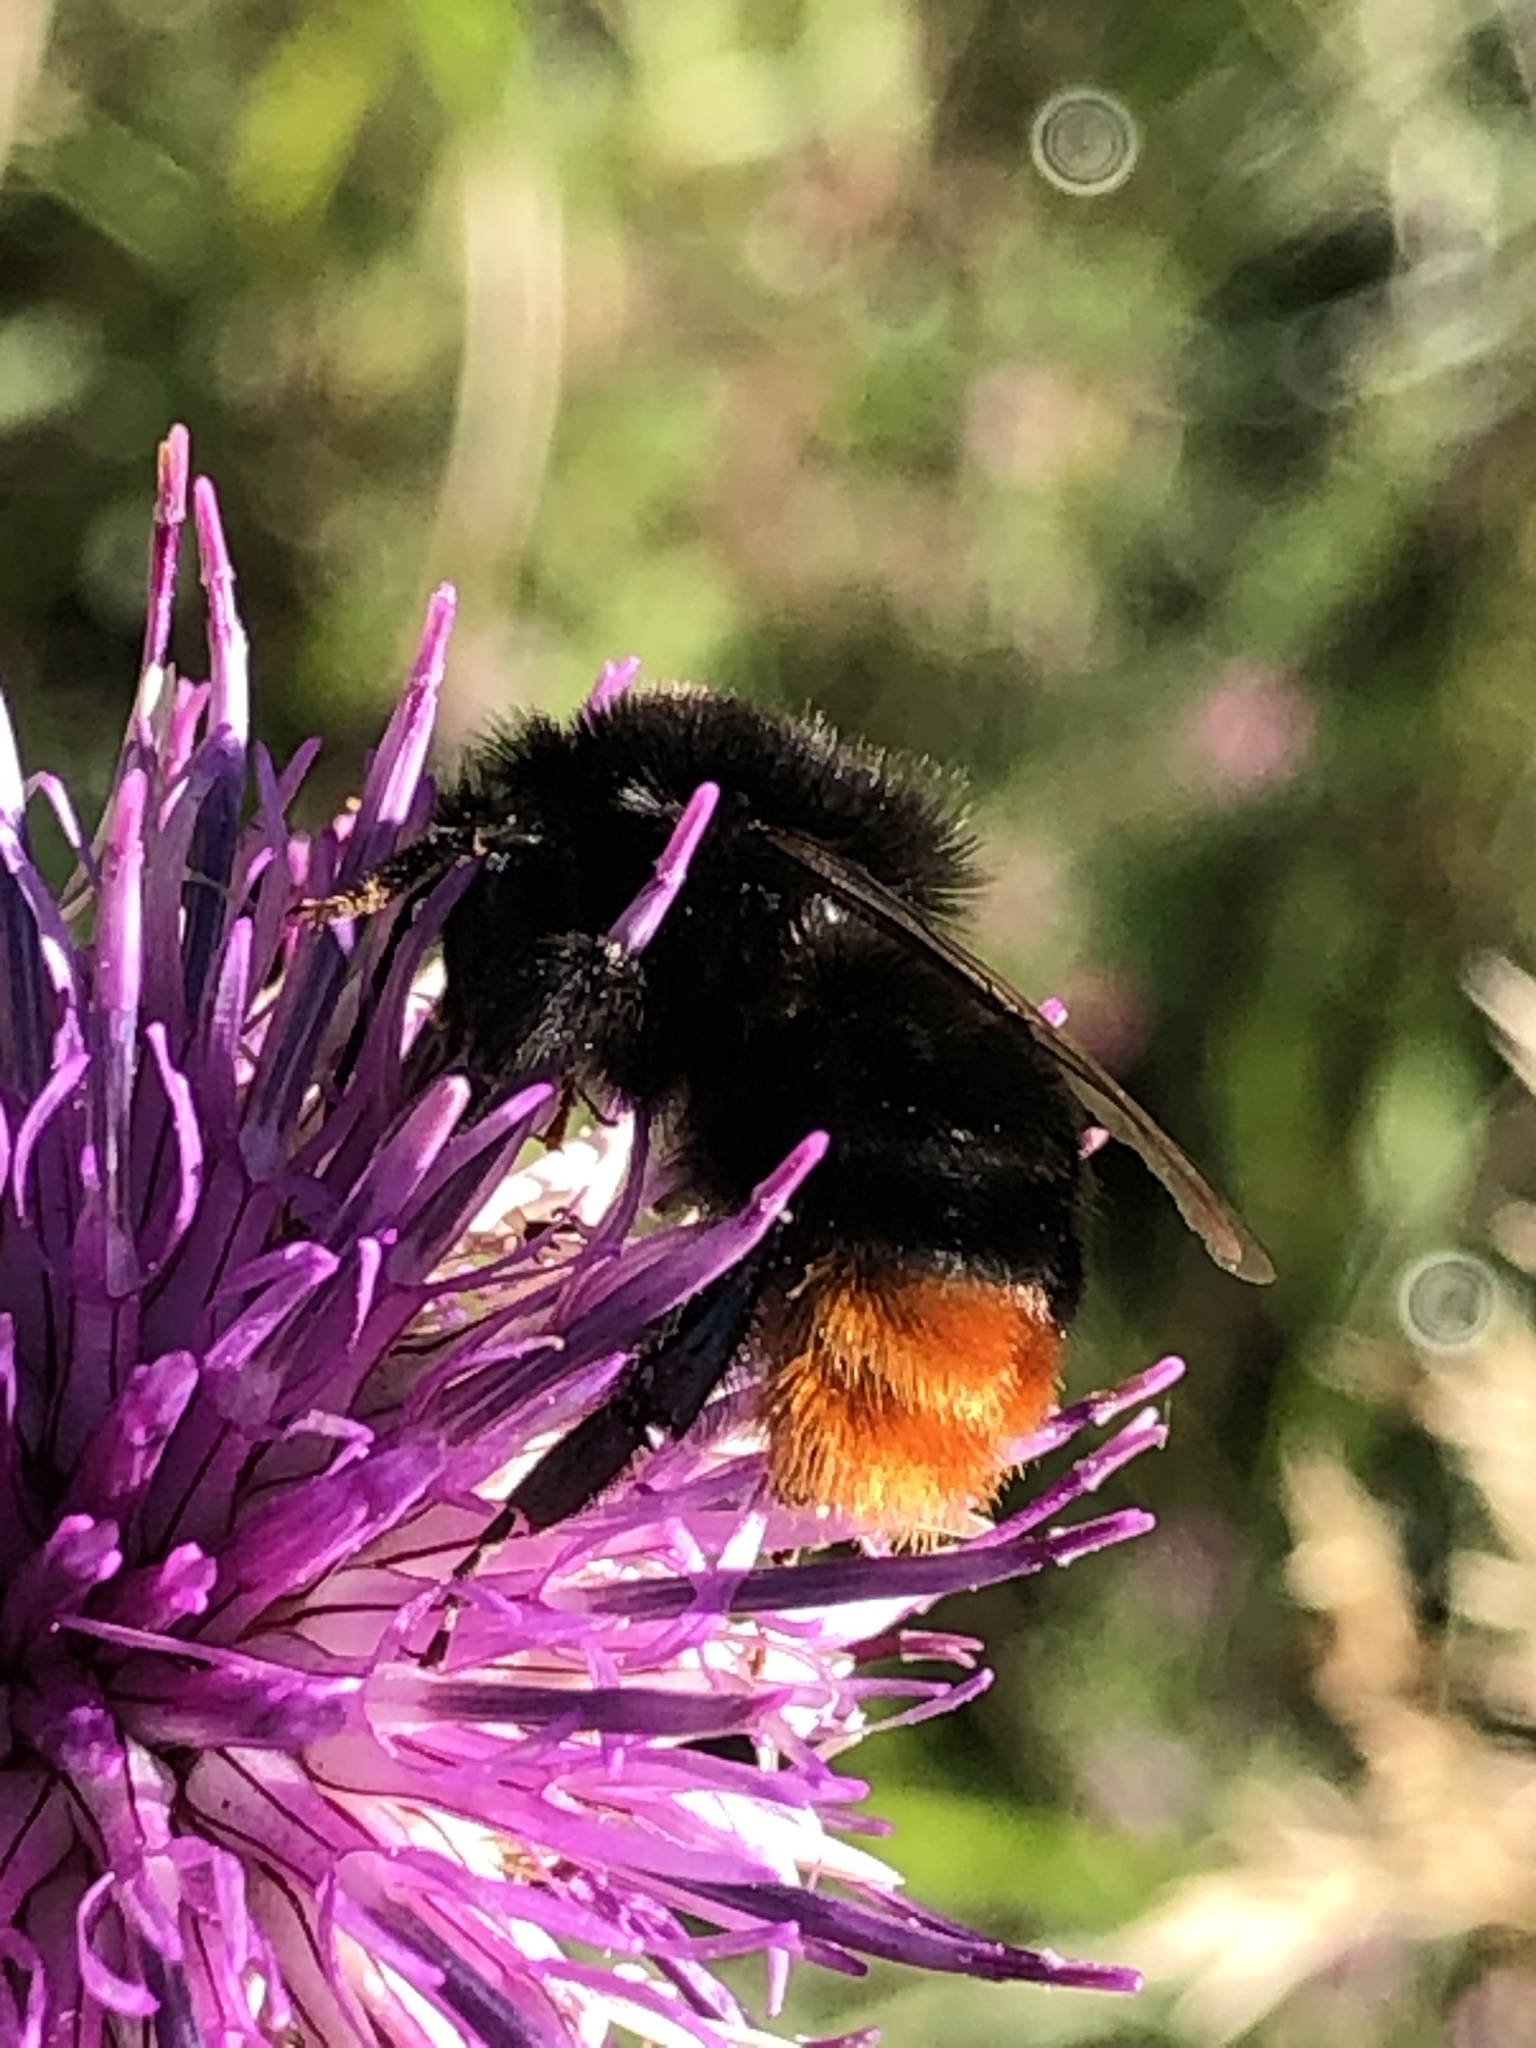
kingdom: Animalia
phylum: Arthropoda
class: Insecta
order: Hymenoptera
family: Apidae
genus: Bombus
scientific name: Bombus lapidarius
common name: Large red-tailed humble-bee
